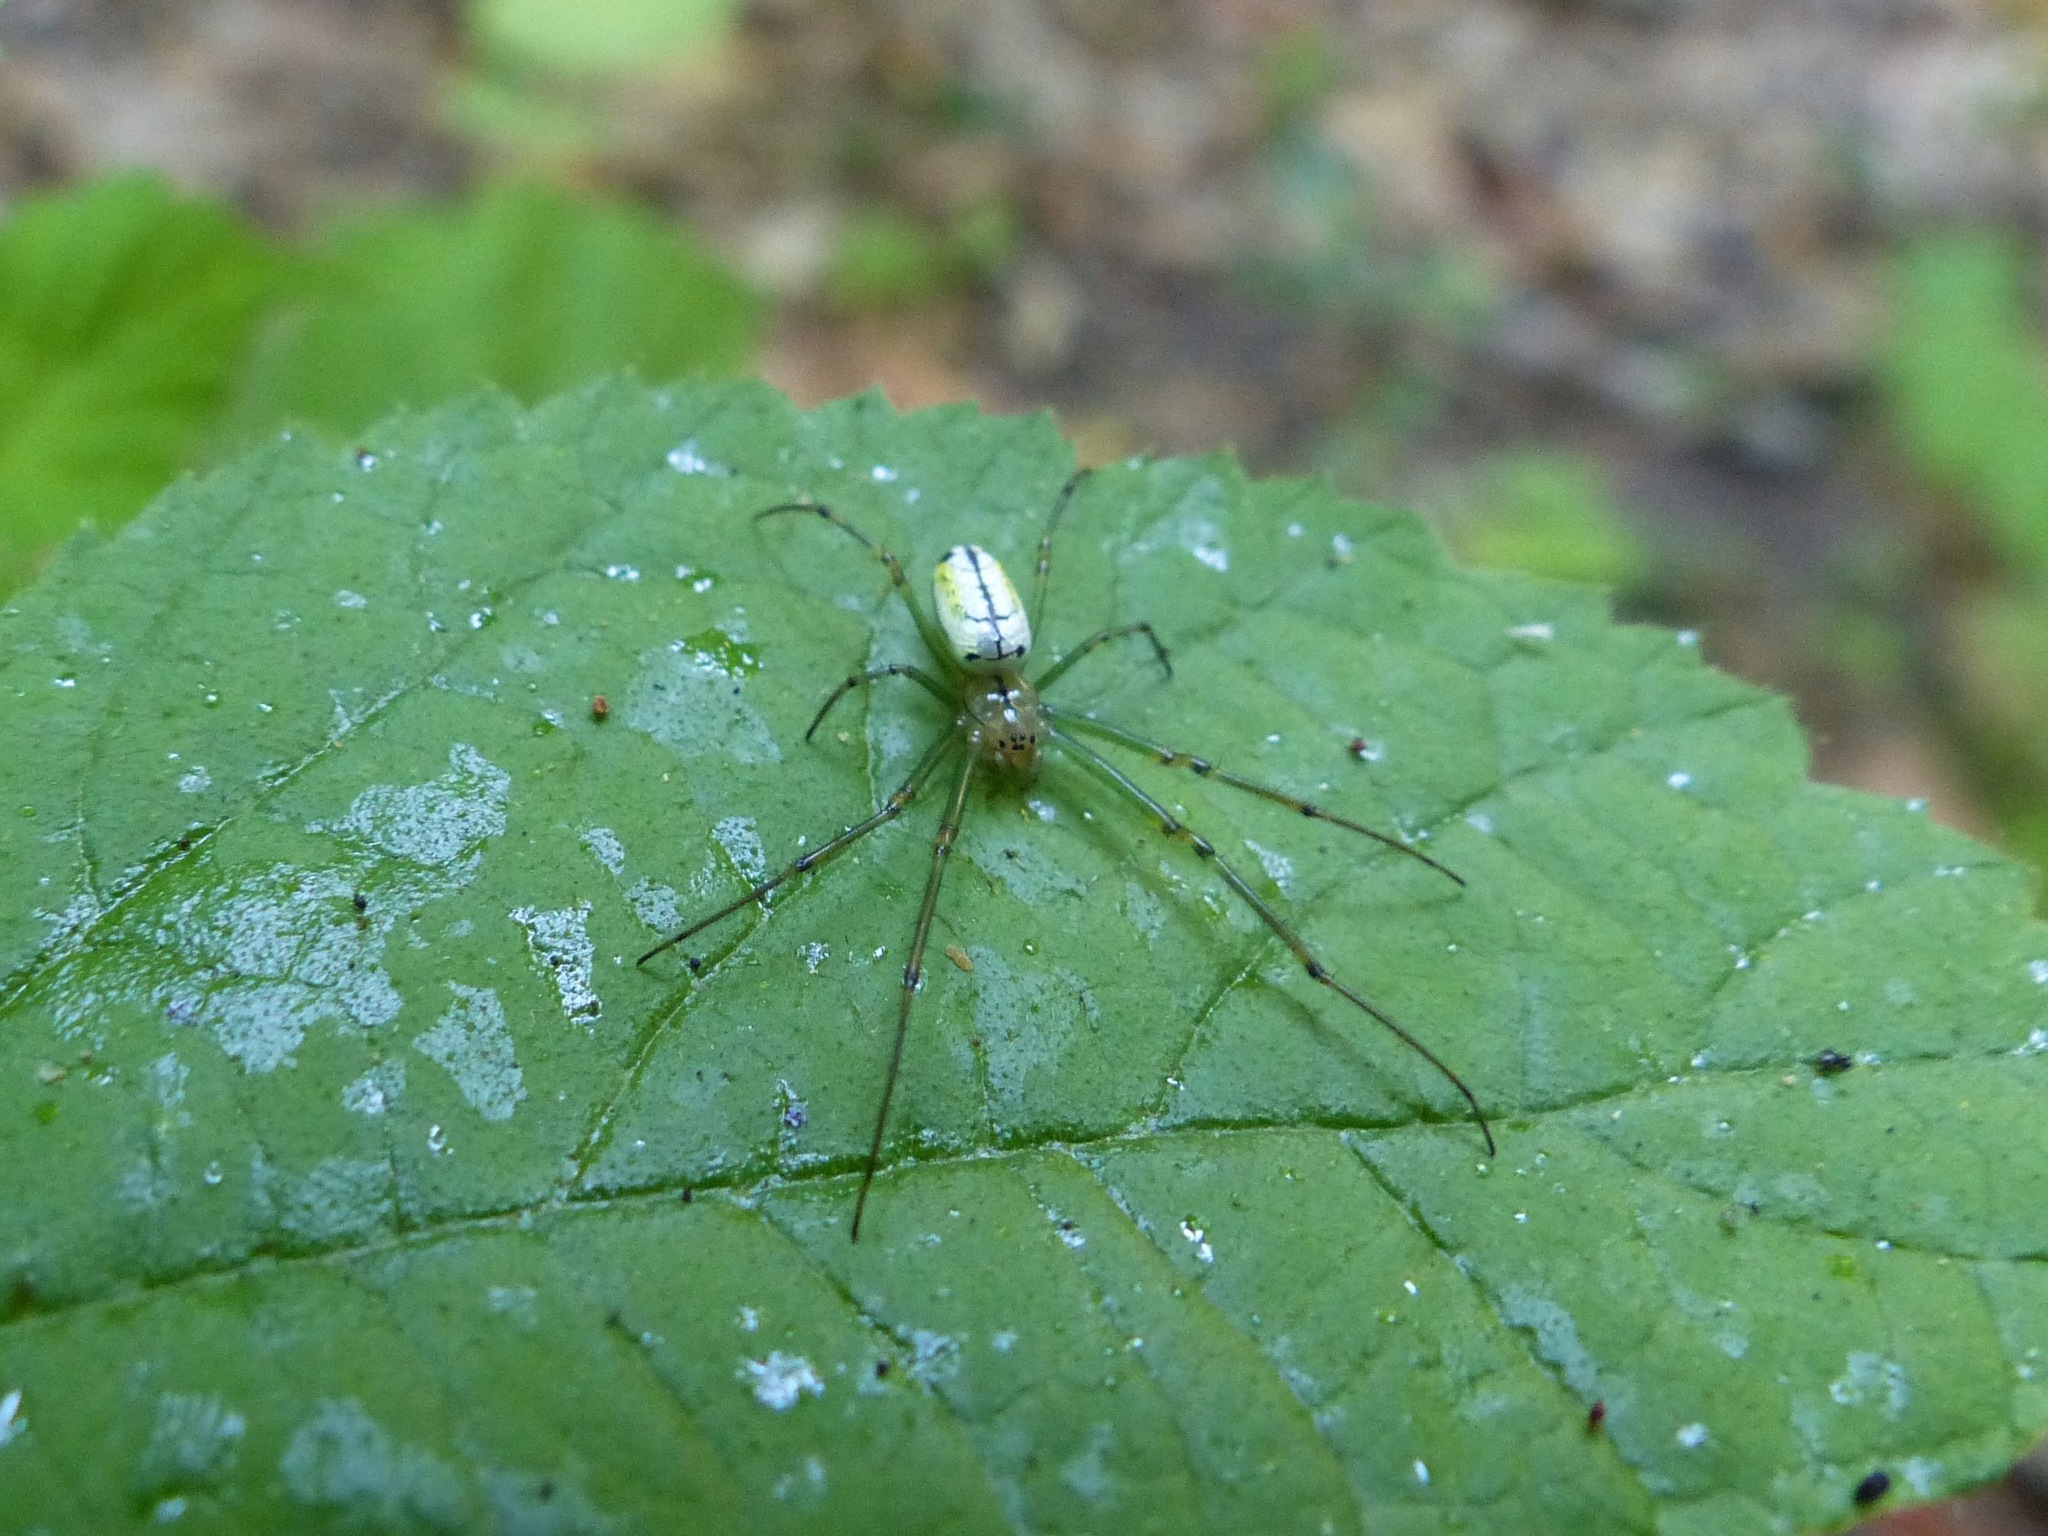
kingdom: Animalia
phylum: Arthropoda
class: Arachnida
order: Araneae
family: Tetragnathidae
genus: Leucauge
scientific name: Leucauge venusta
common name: Longjawed orb weavers
